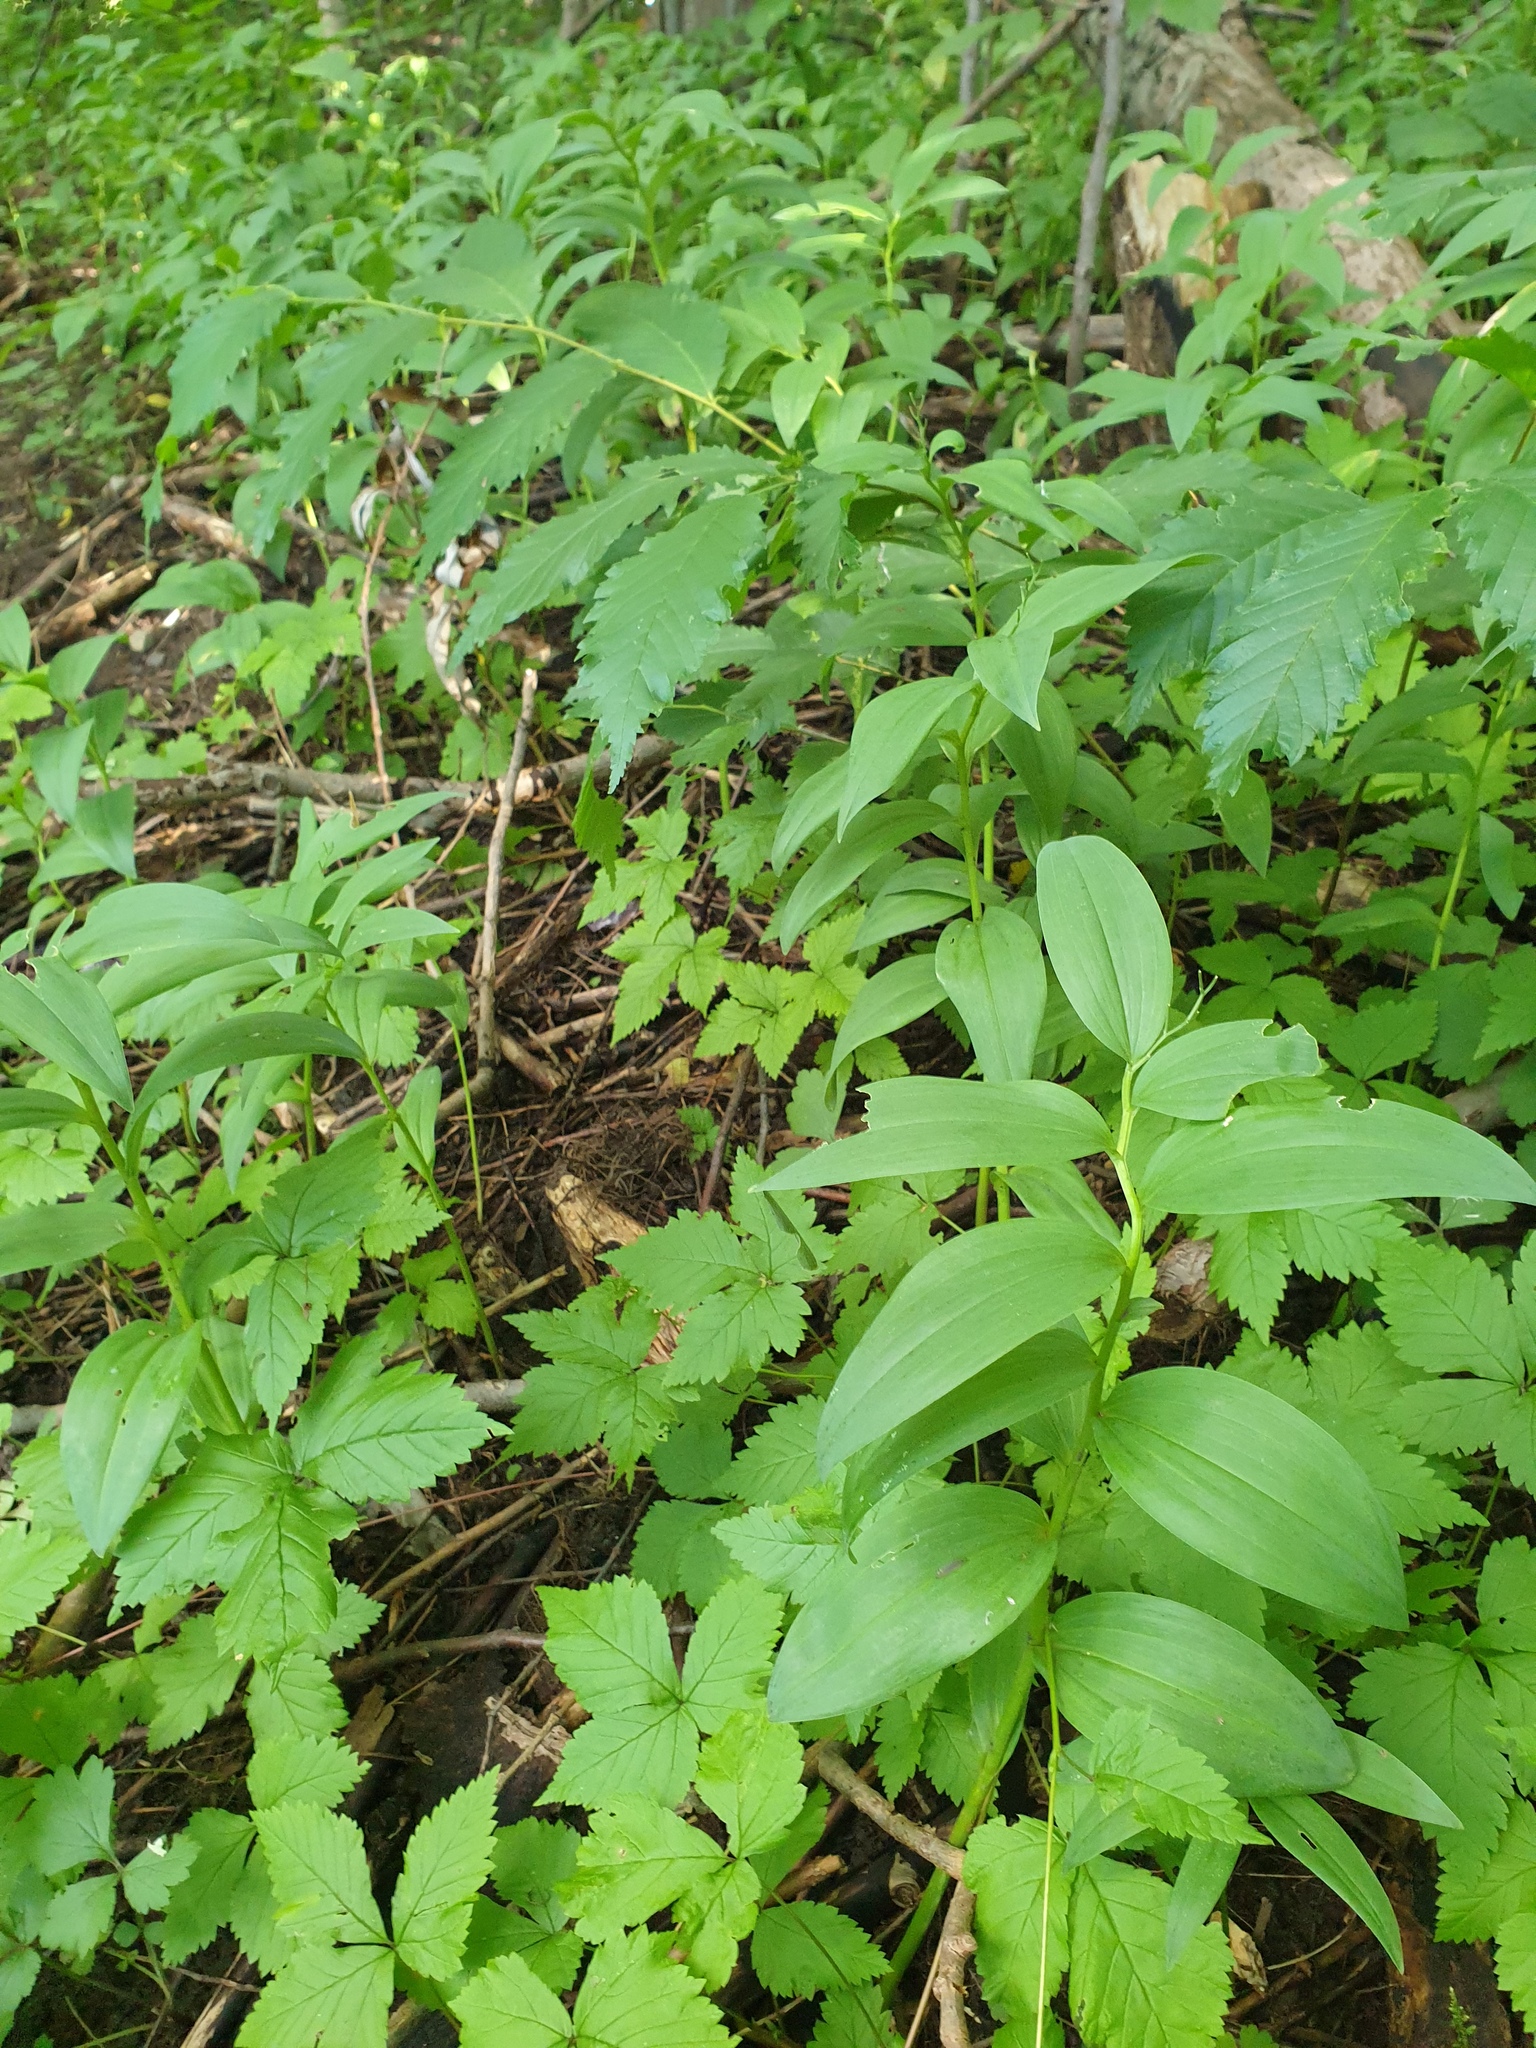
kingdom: Plantae
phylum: Tracheophyta
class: Liliopsida
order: Asparagales
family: Asparagaceae
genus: Maianthemum
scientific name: Maianthemum stellatum
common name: Little false solomon's seal
